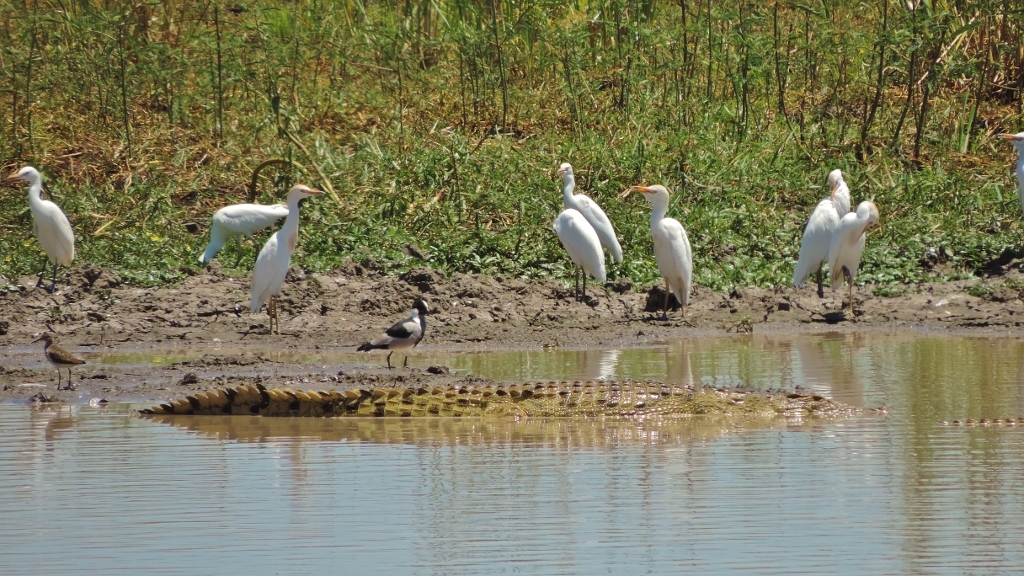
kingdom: Animalia
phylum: Chordata
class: Crocodylia
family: Crocodylidae
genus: Crocodylus
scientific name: Crocodylus niloticus
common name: Nile crocodile
